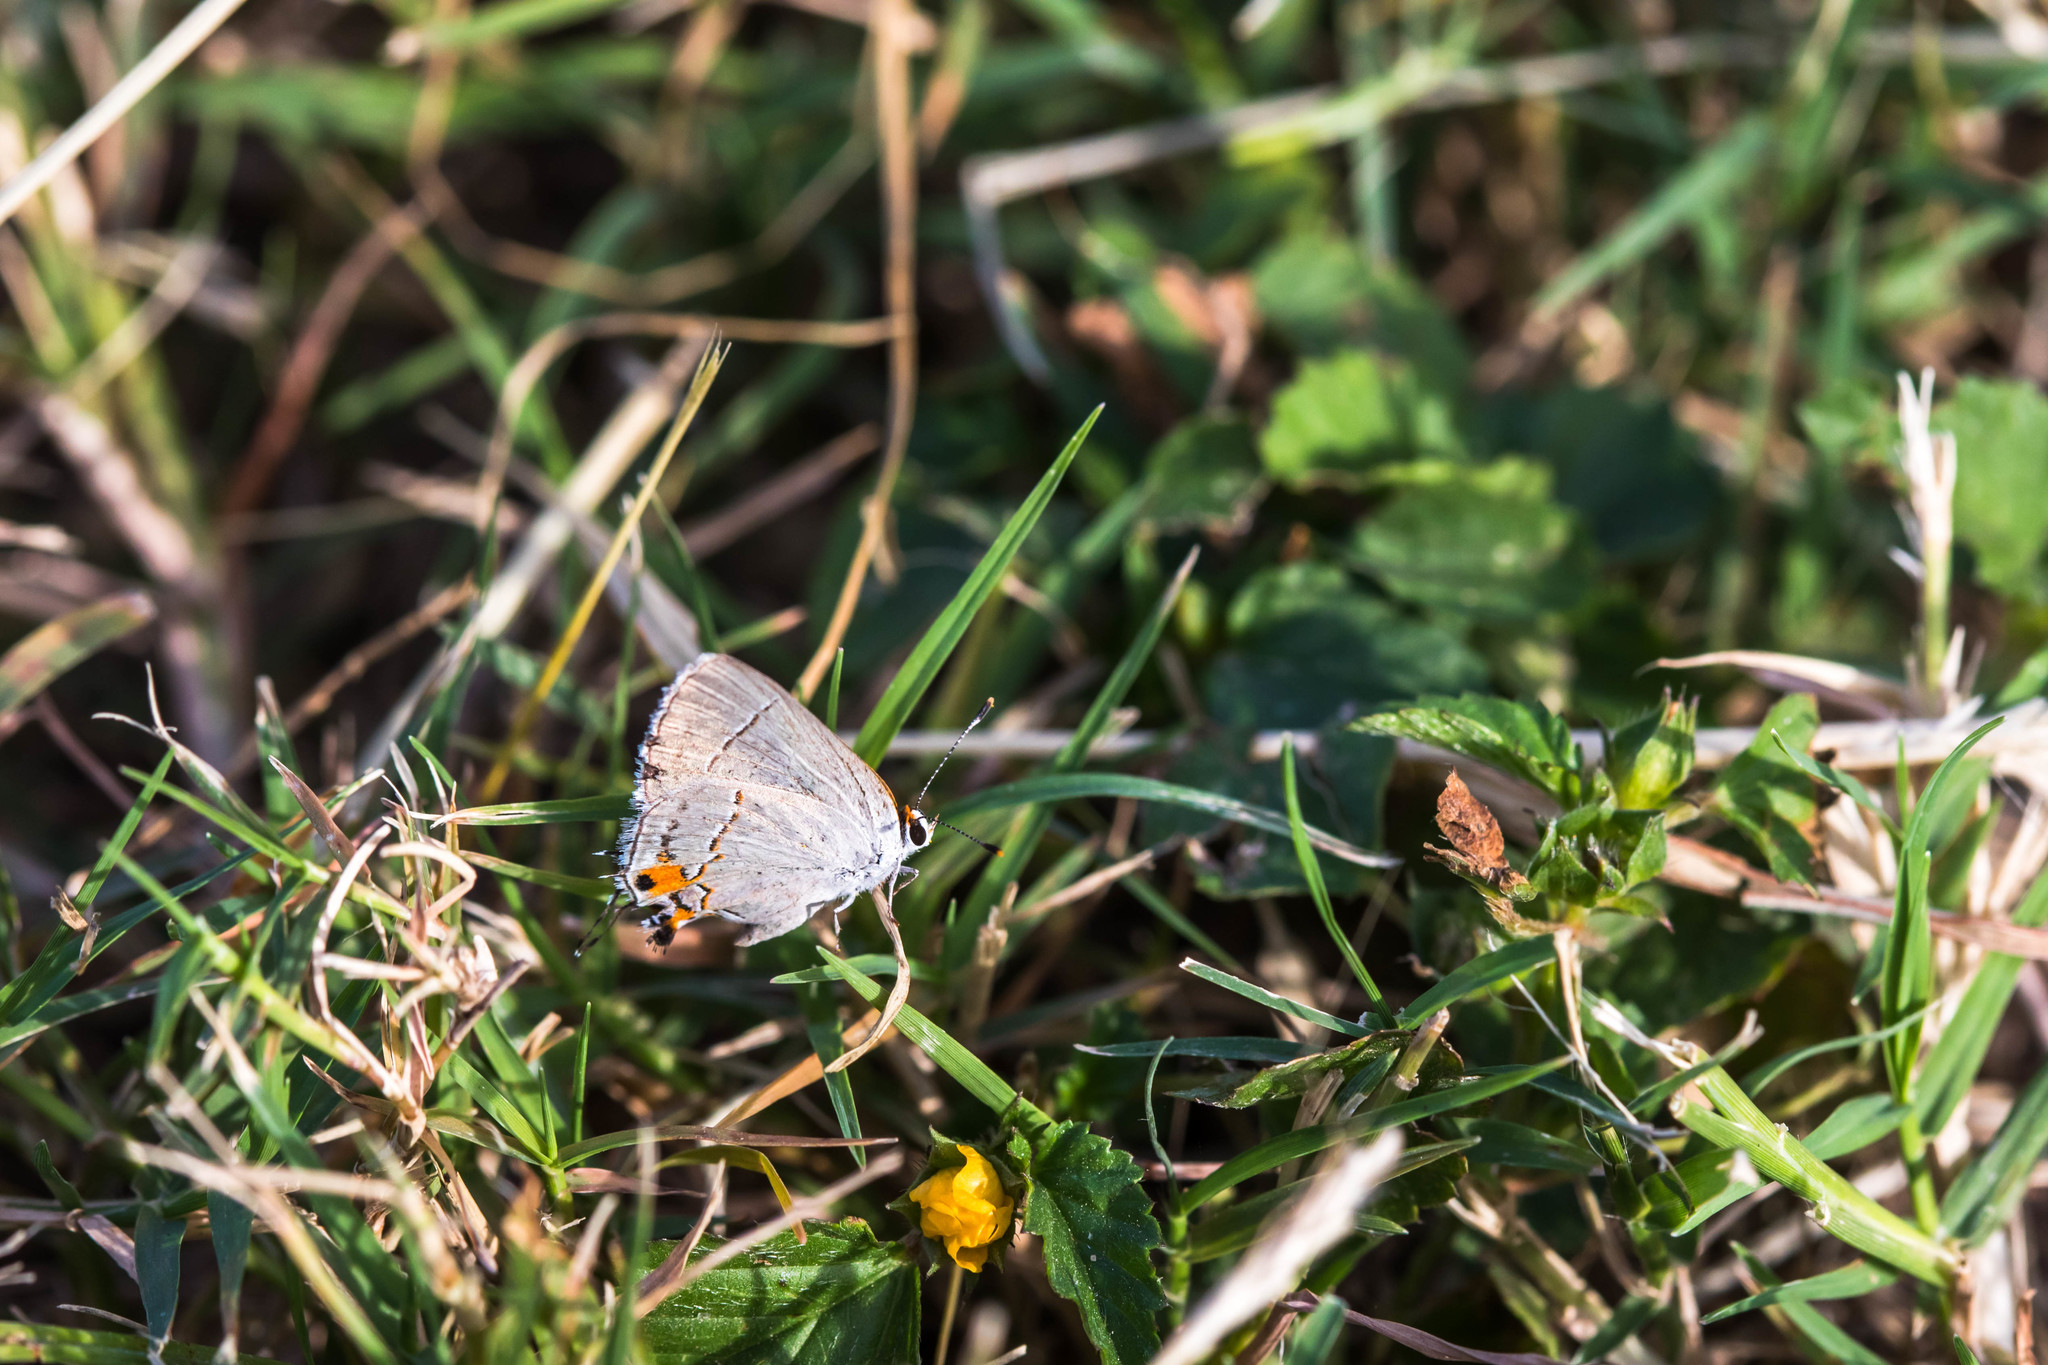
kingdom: Animalia
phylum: Arthropoda
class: Insecta
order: Lepidoptera
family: Lycaenidae
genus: Strymon
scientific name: Strymon melinus
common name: Gray hairstreak
